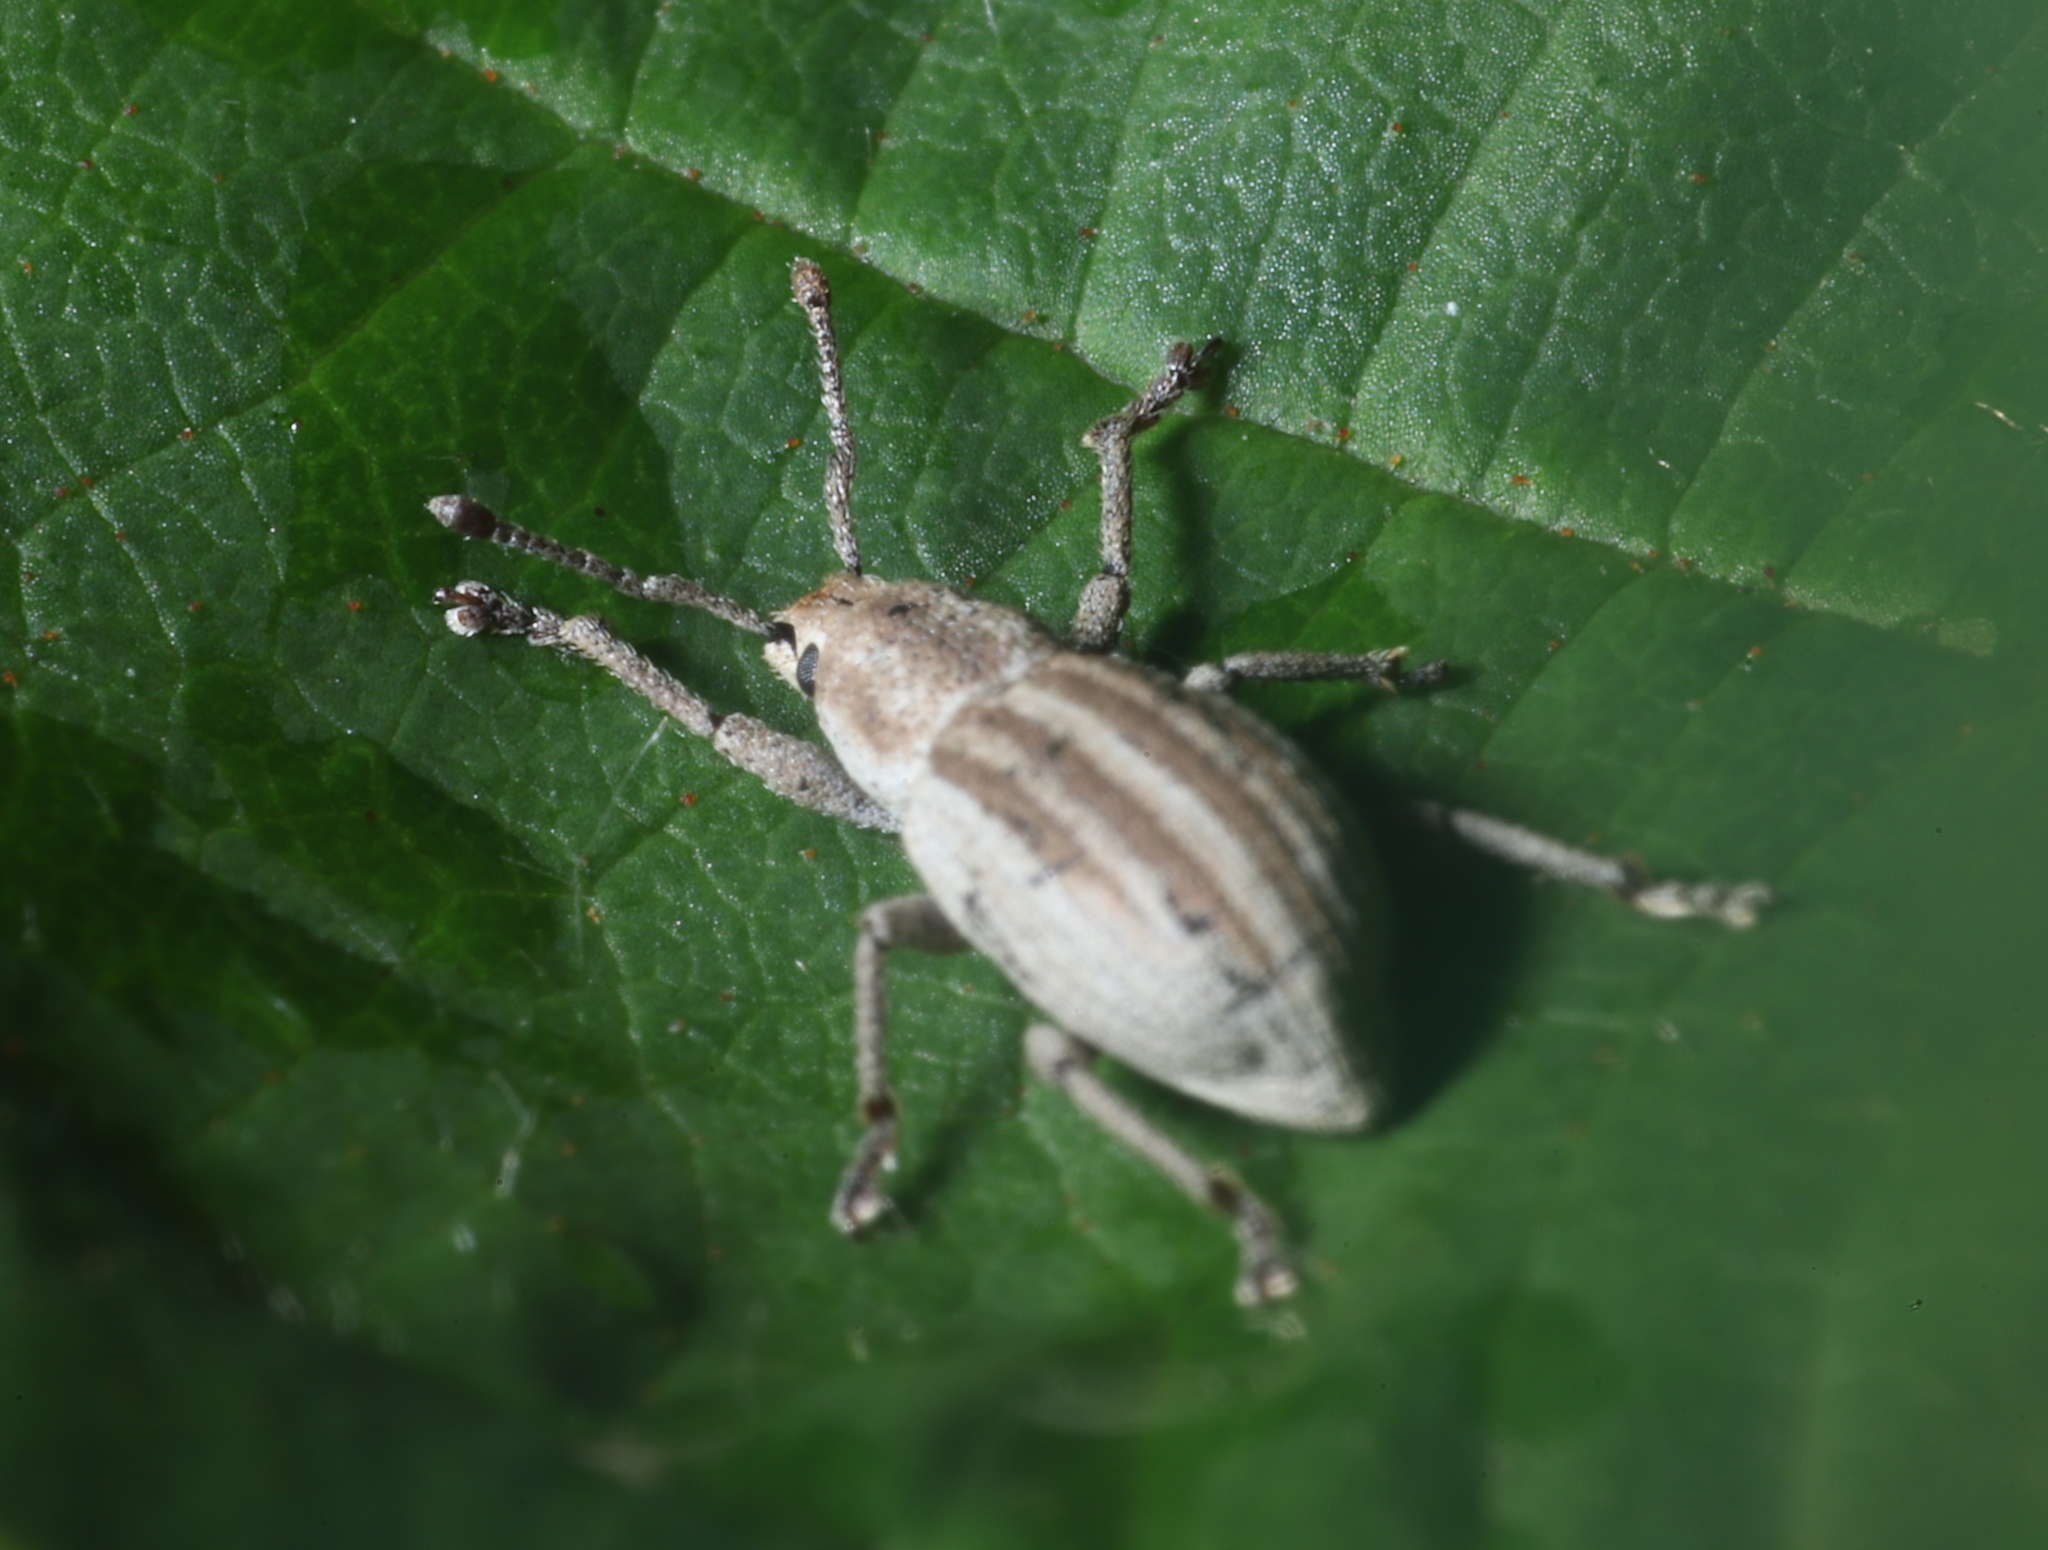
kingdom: Animalia
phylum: Arthropoda
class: Insecta
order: Coleoptera
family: Curculionidae
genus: Aphrastus
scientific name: Aphrastus taeniatus
